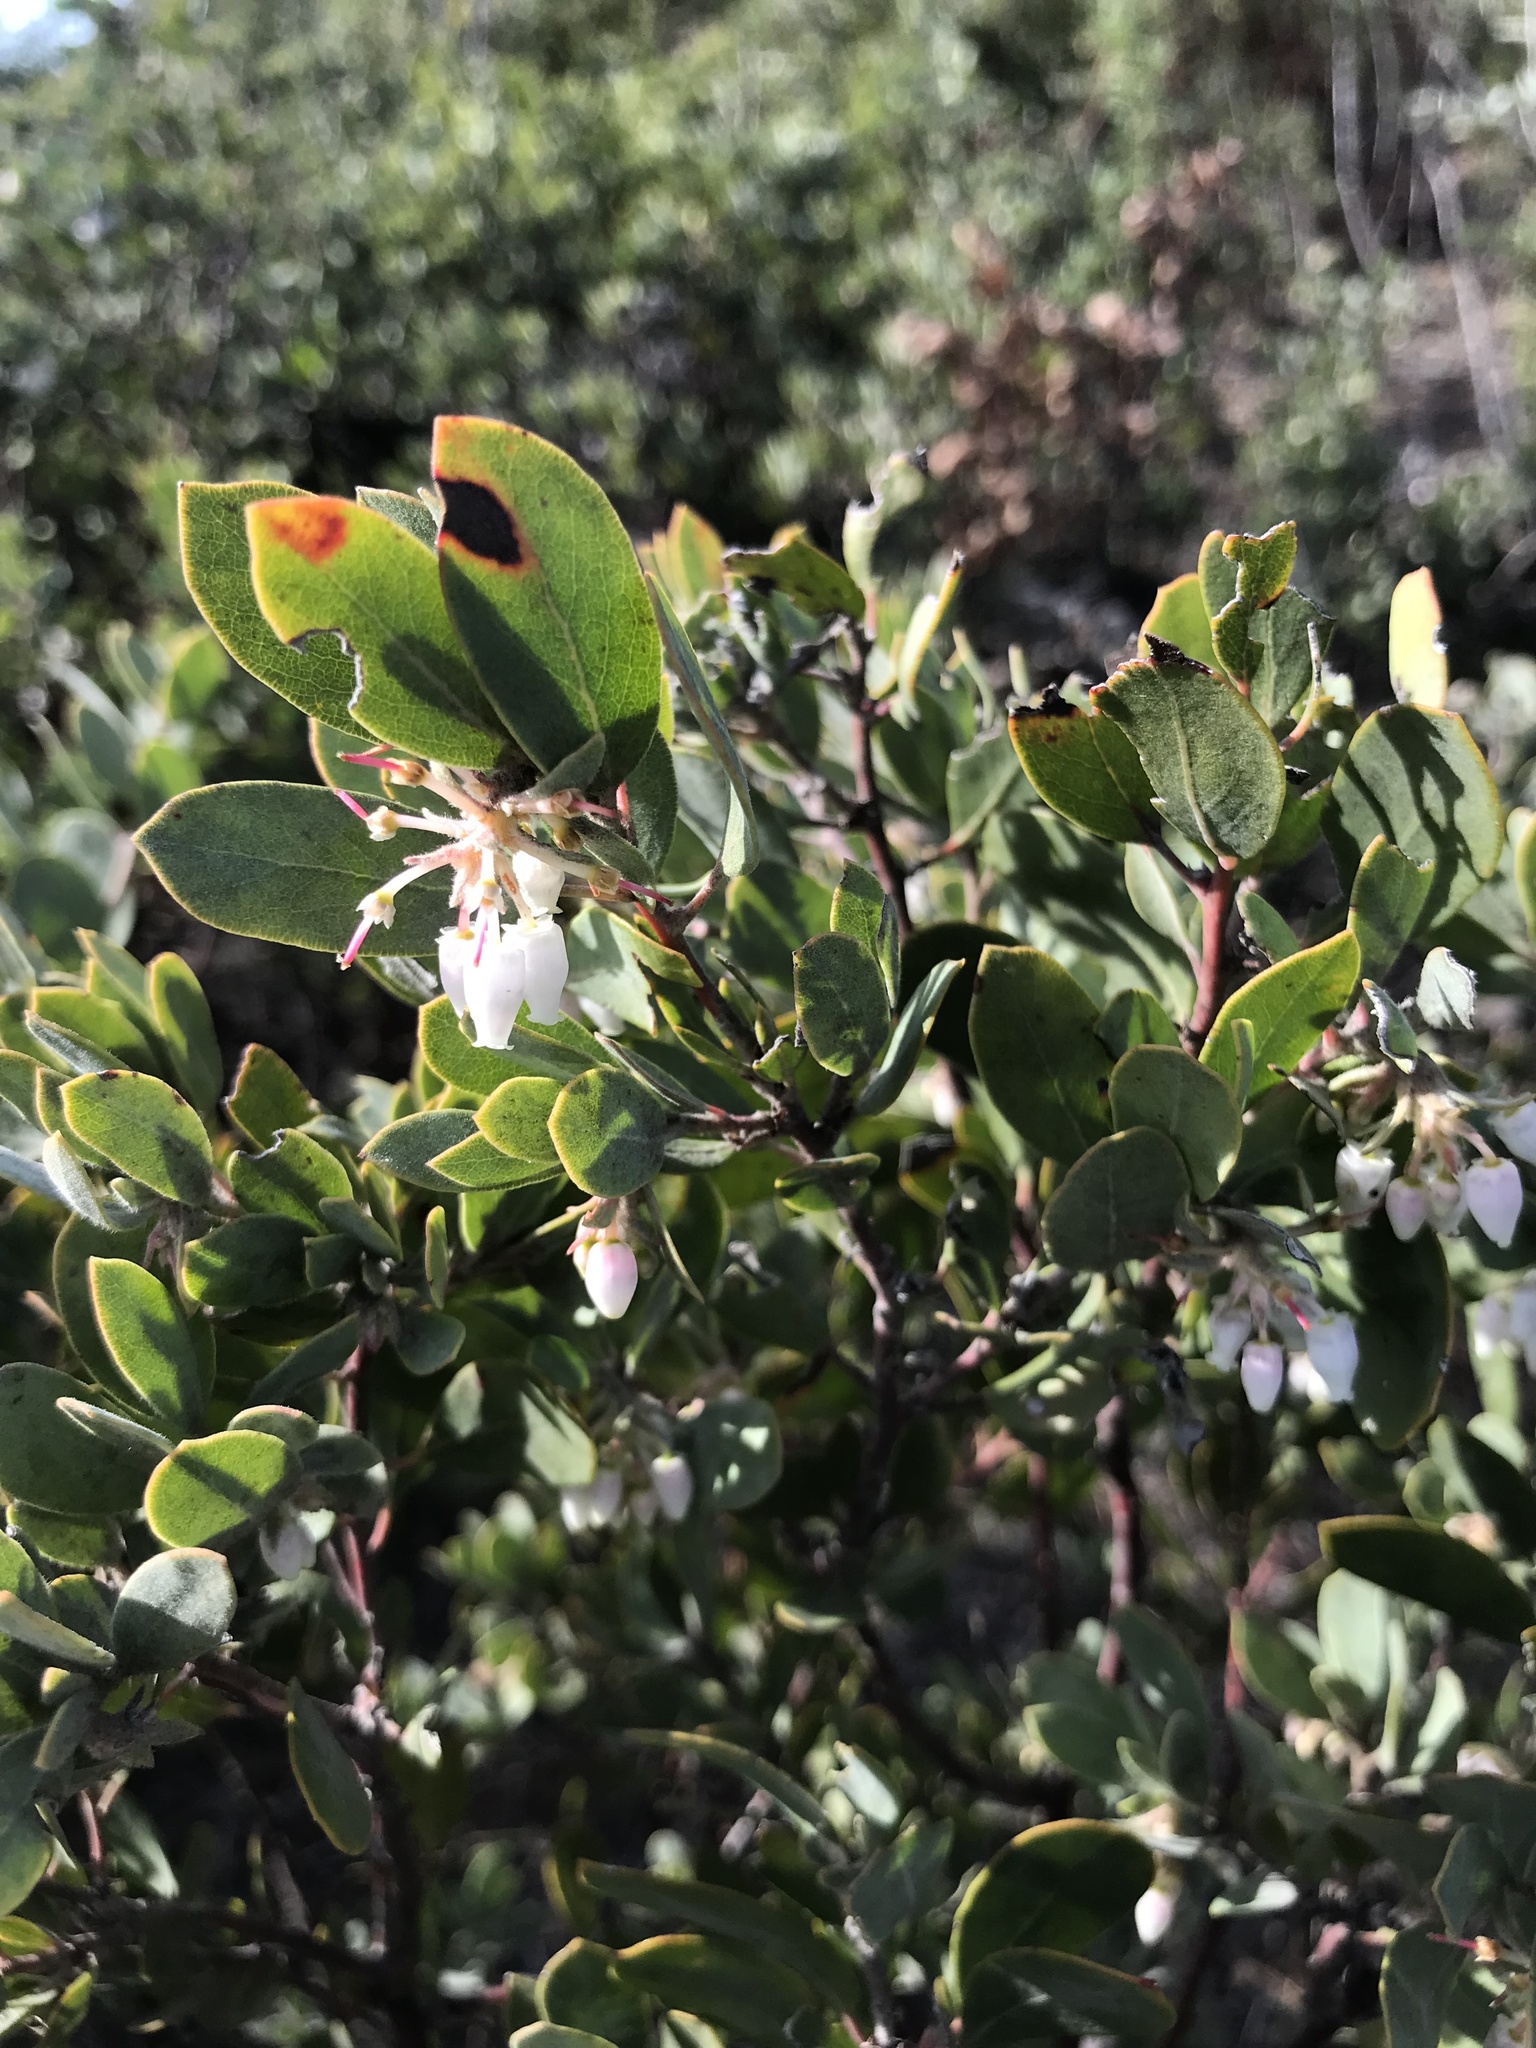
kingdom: Plantae
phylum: Tracheophyta
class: Magnoliopsida
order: Ericales
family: Ericaceae
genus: Arctostaphylos
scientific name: Arctostaphylos silvicola
